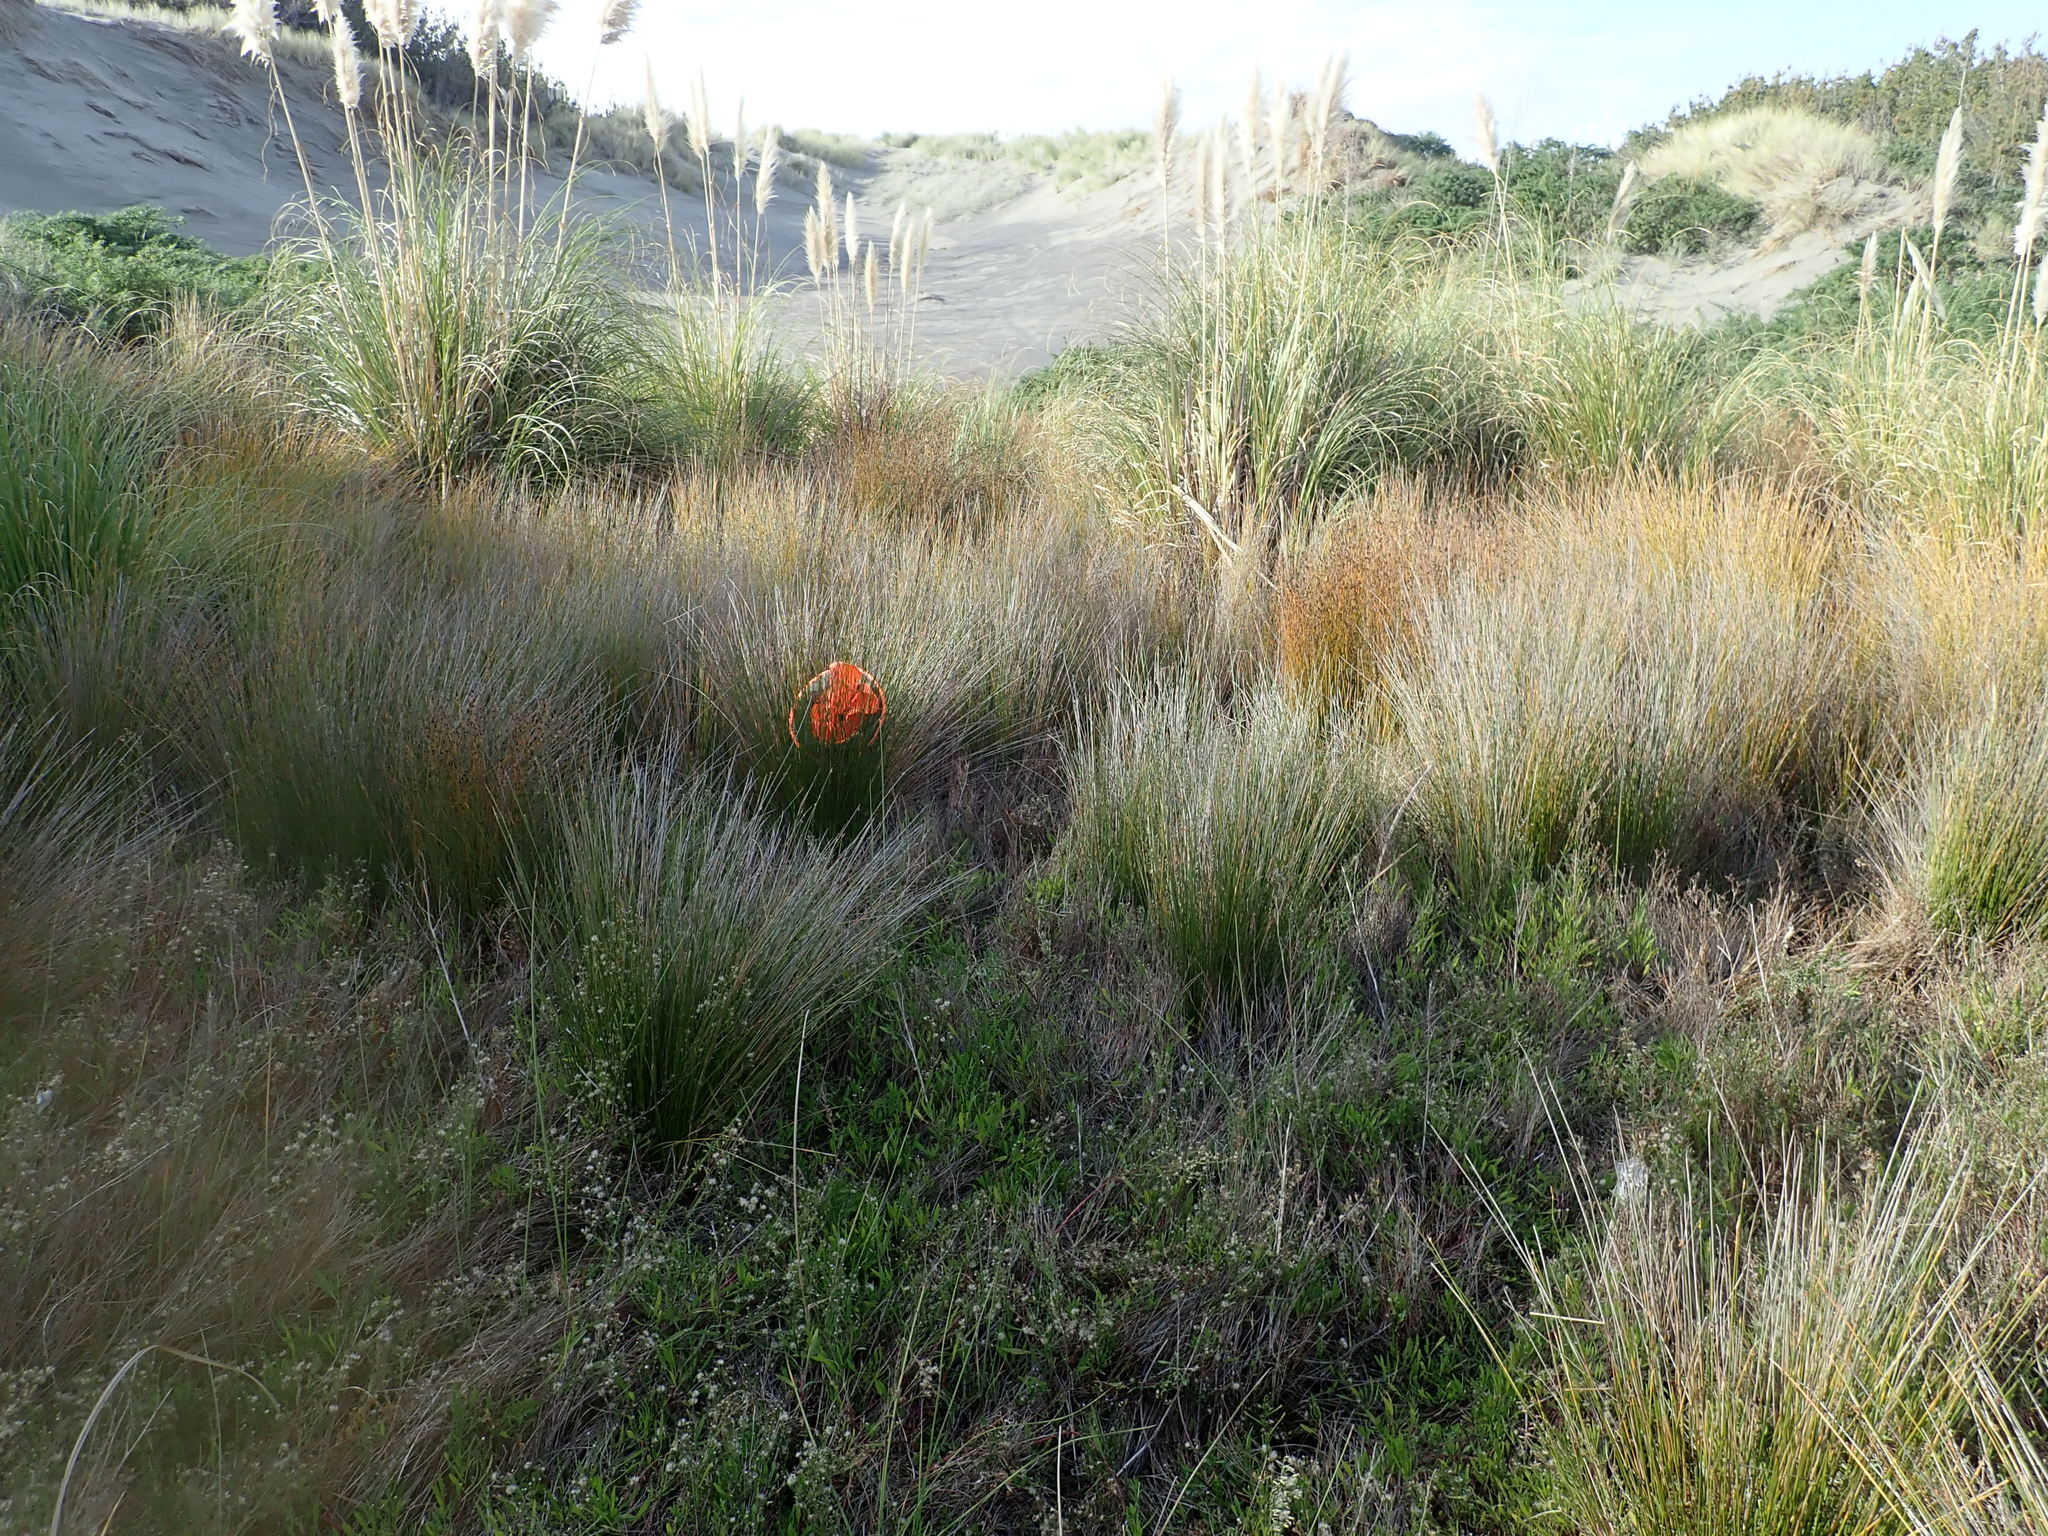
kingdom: Plantae
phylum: Tracheophyta
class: Liliopsida
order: Poales
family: Cyperaceae
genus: Ficinia
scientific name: Ficinia nodosa
